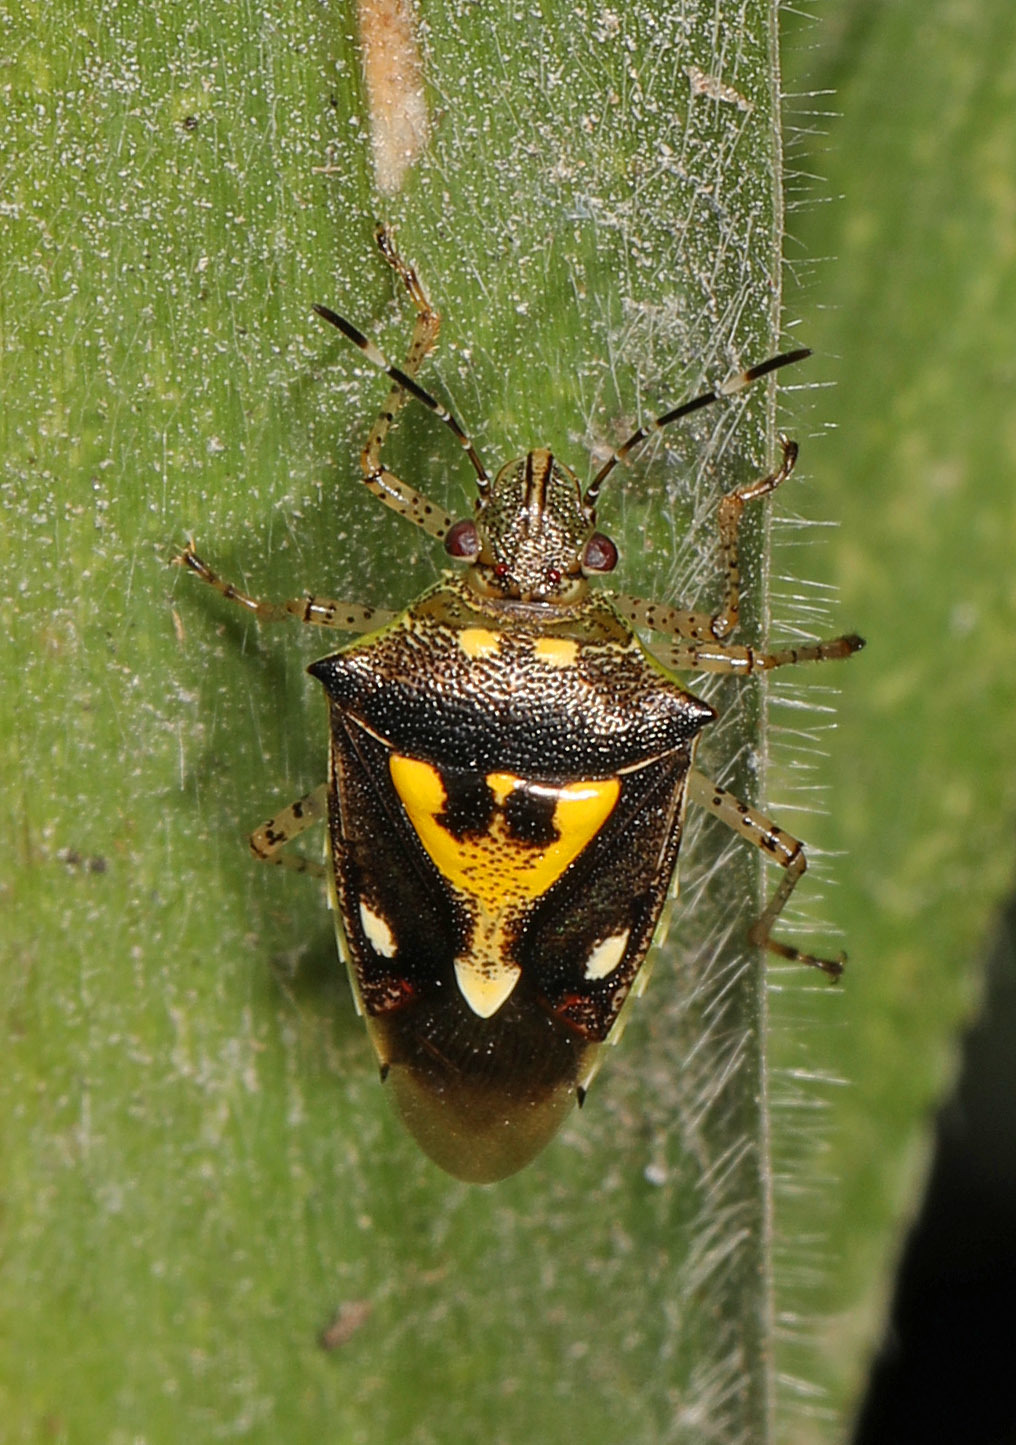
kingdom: Animalia
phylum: Arthropoda
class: Insecta
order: Hemiptera
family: Pentatomidae
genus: Mormidea
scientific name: Mormidea ypsilon
